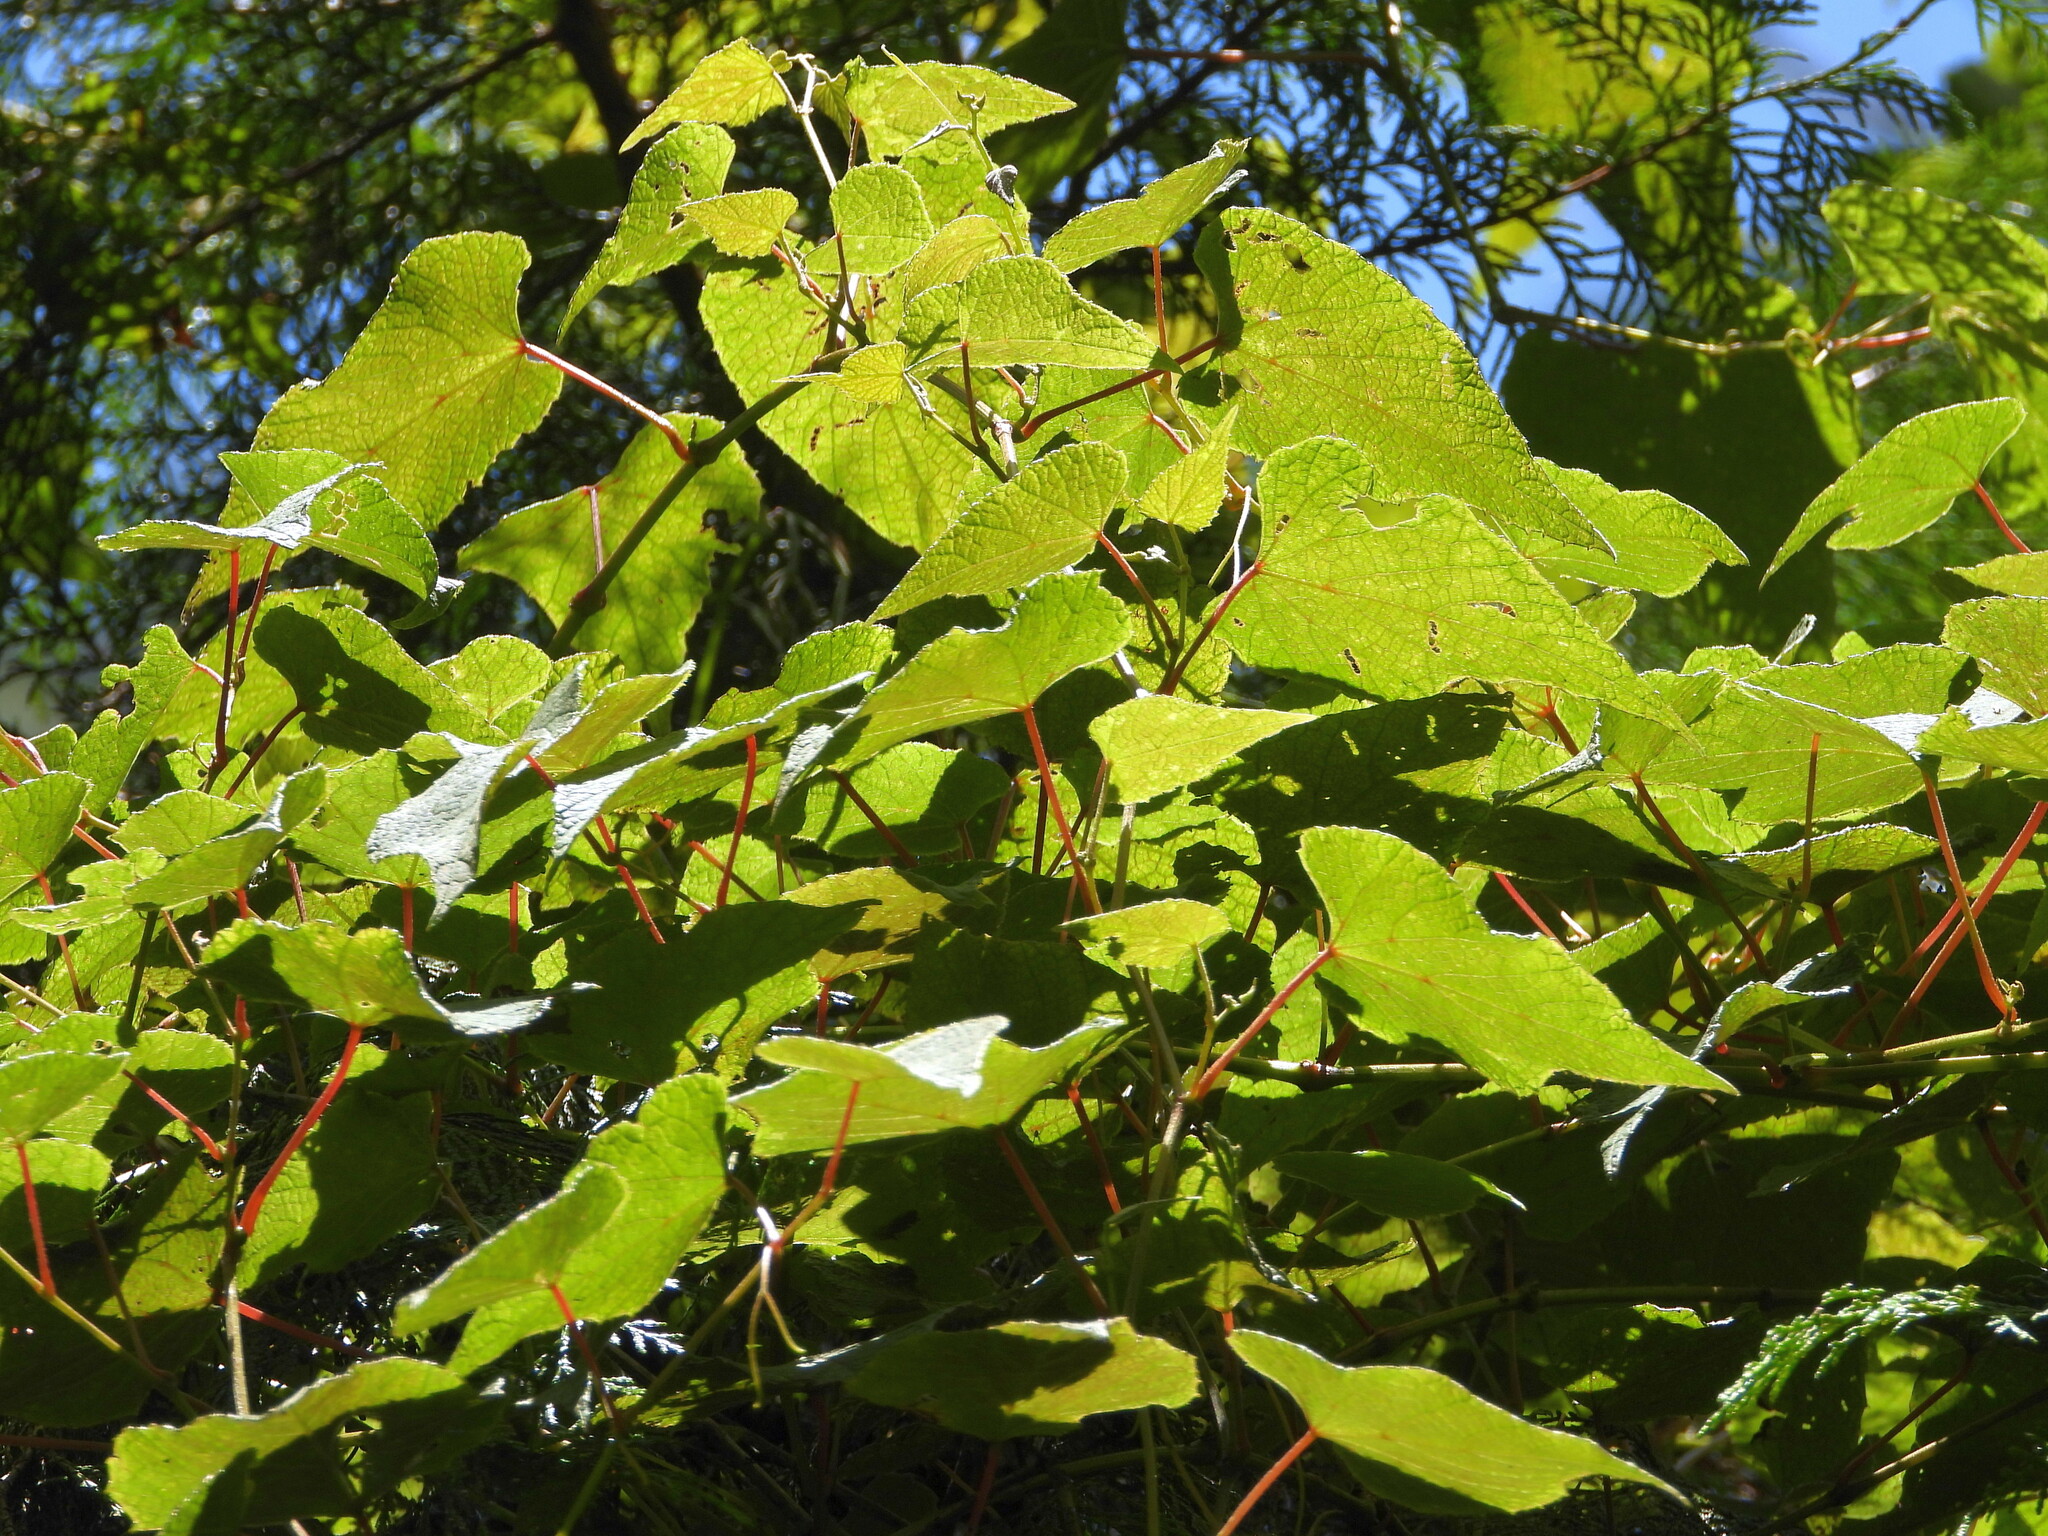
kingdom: Plantae
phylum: Tracheophyta
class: Magnoliopsida
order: Vitales
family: Vitaceae
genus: Vitis
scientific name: Vitis amurensis
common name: Amur grape
